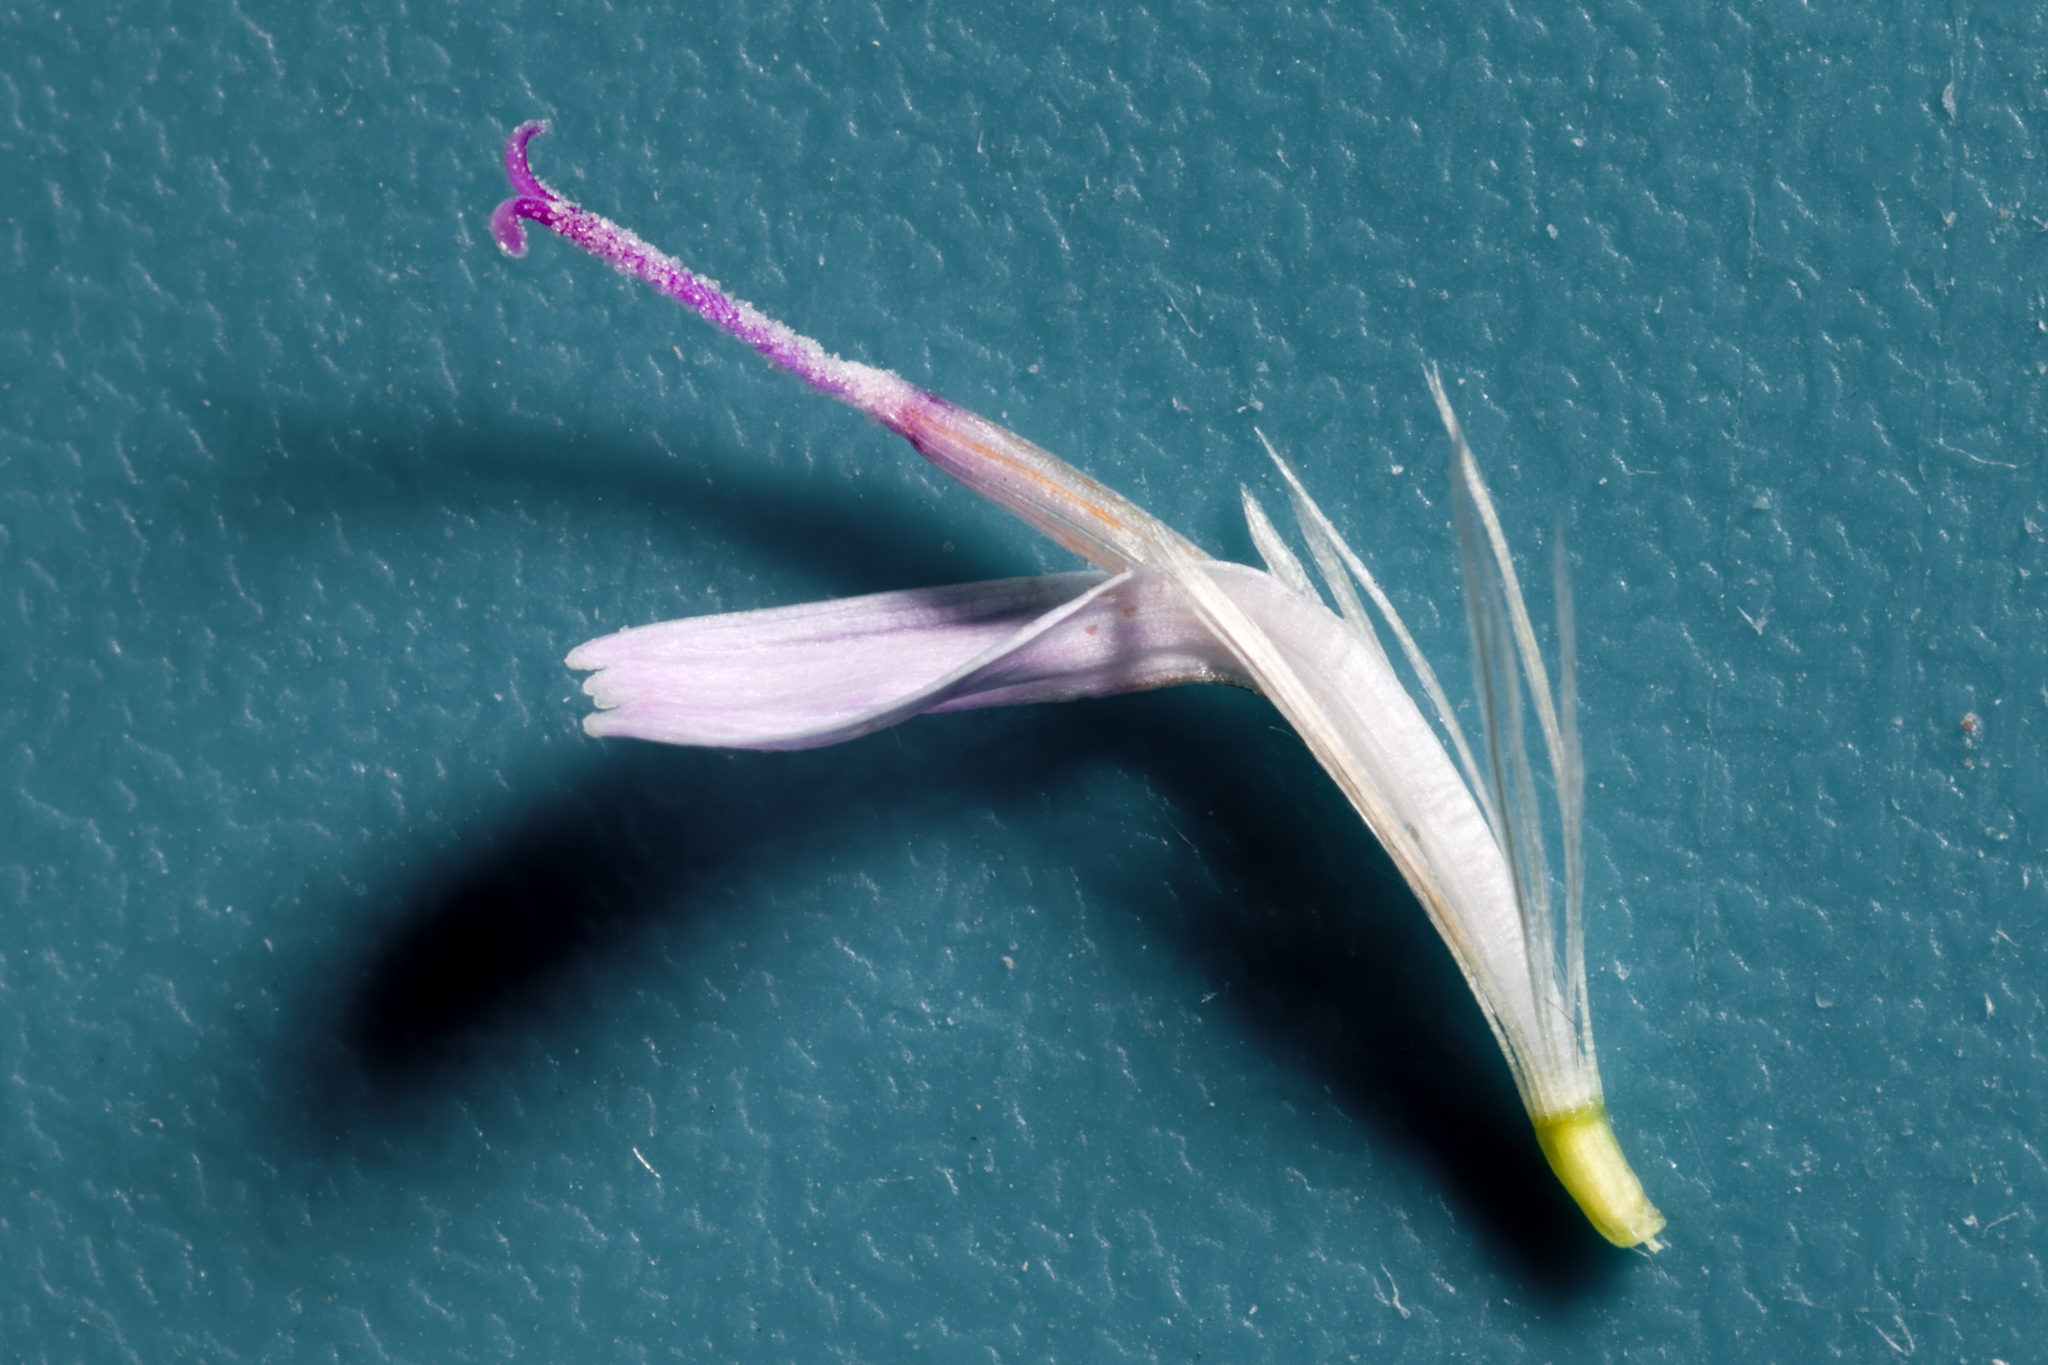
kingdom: Plantae
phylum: Tracheophyta
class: Magnoliopsida
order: Asterales
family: Asteraceae
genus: Stephanomeria
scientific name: Stephanomeria pauciflora
